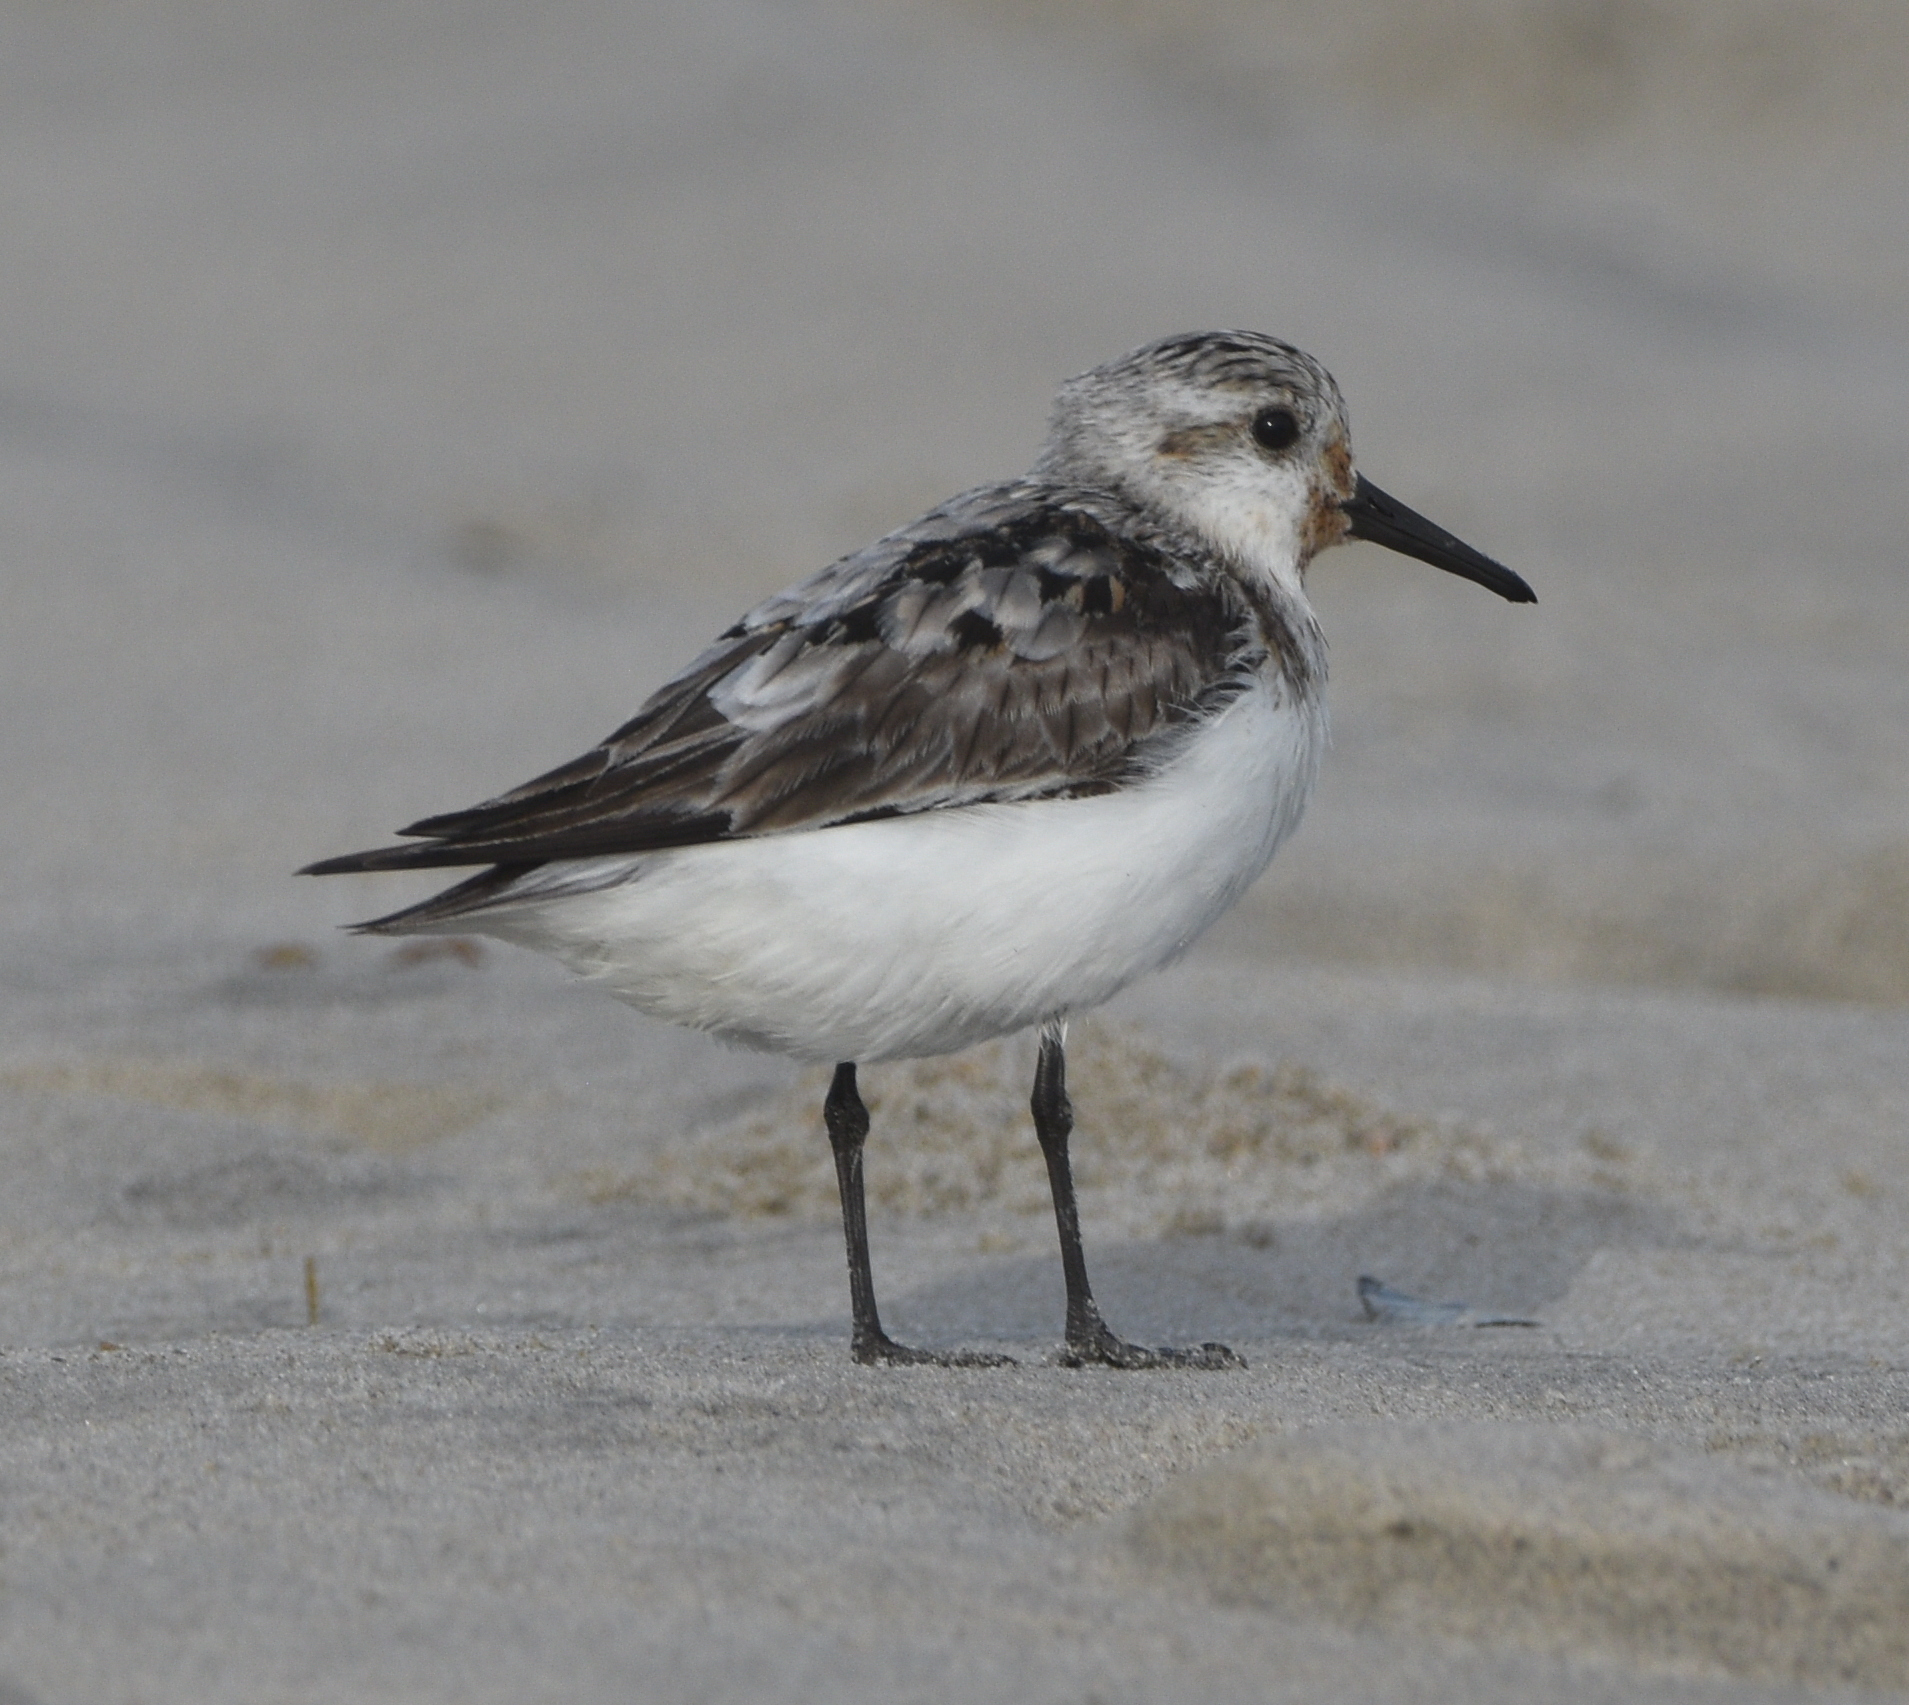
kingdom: Animalia
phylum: Chordata
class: Aves
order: Charadriiformes
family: Scolopacidae
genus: Calidris
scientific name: Calidris alba
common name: Sanderling
